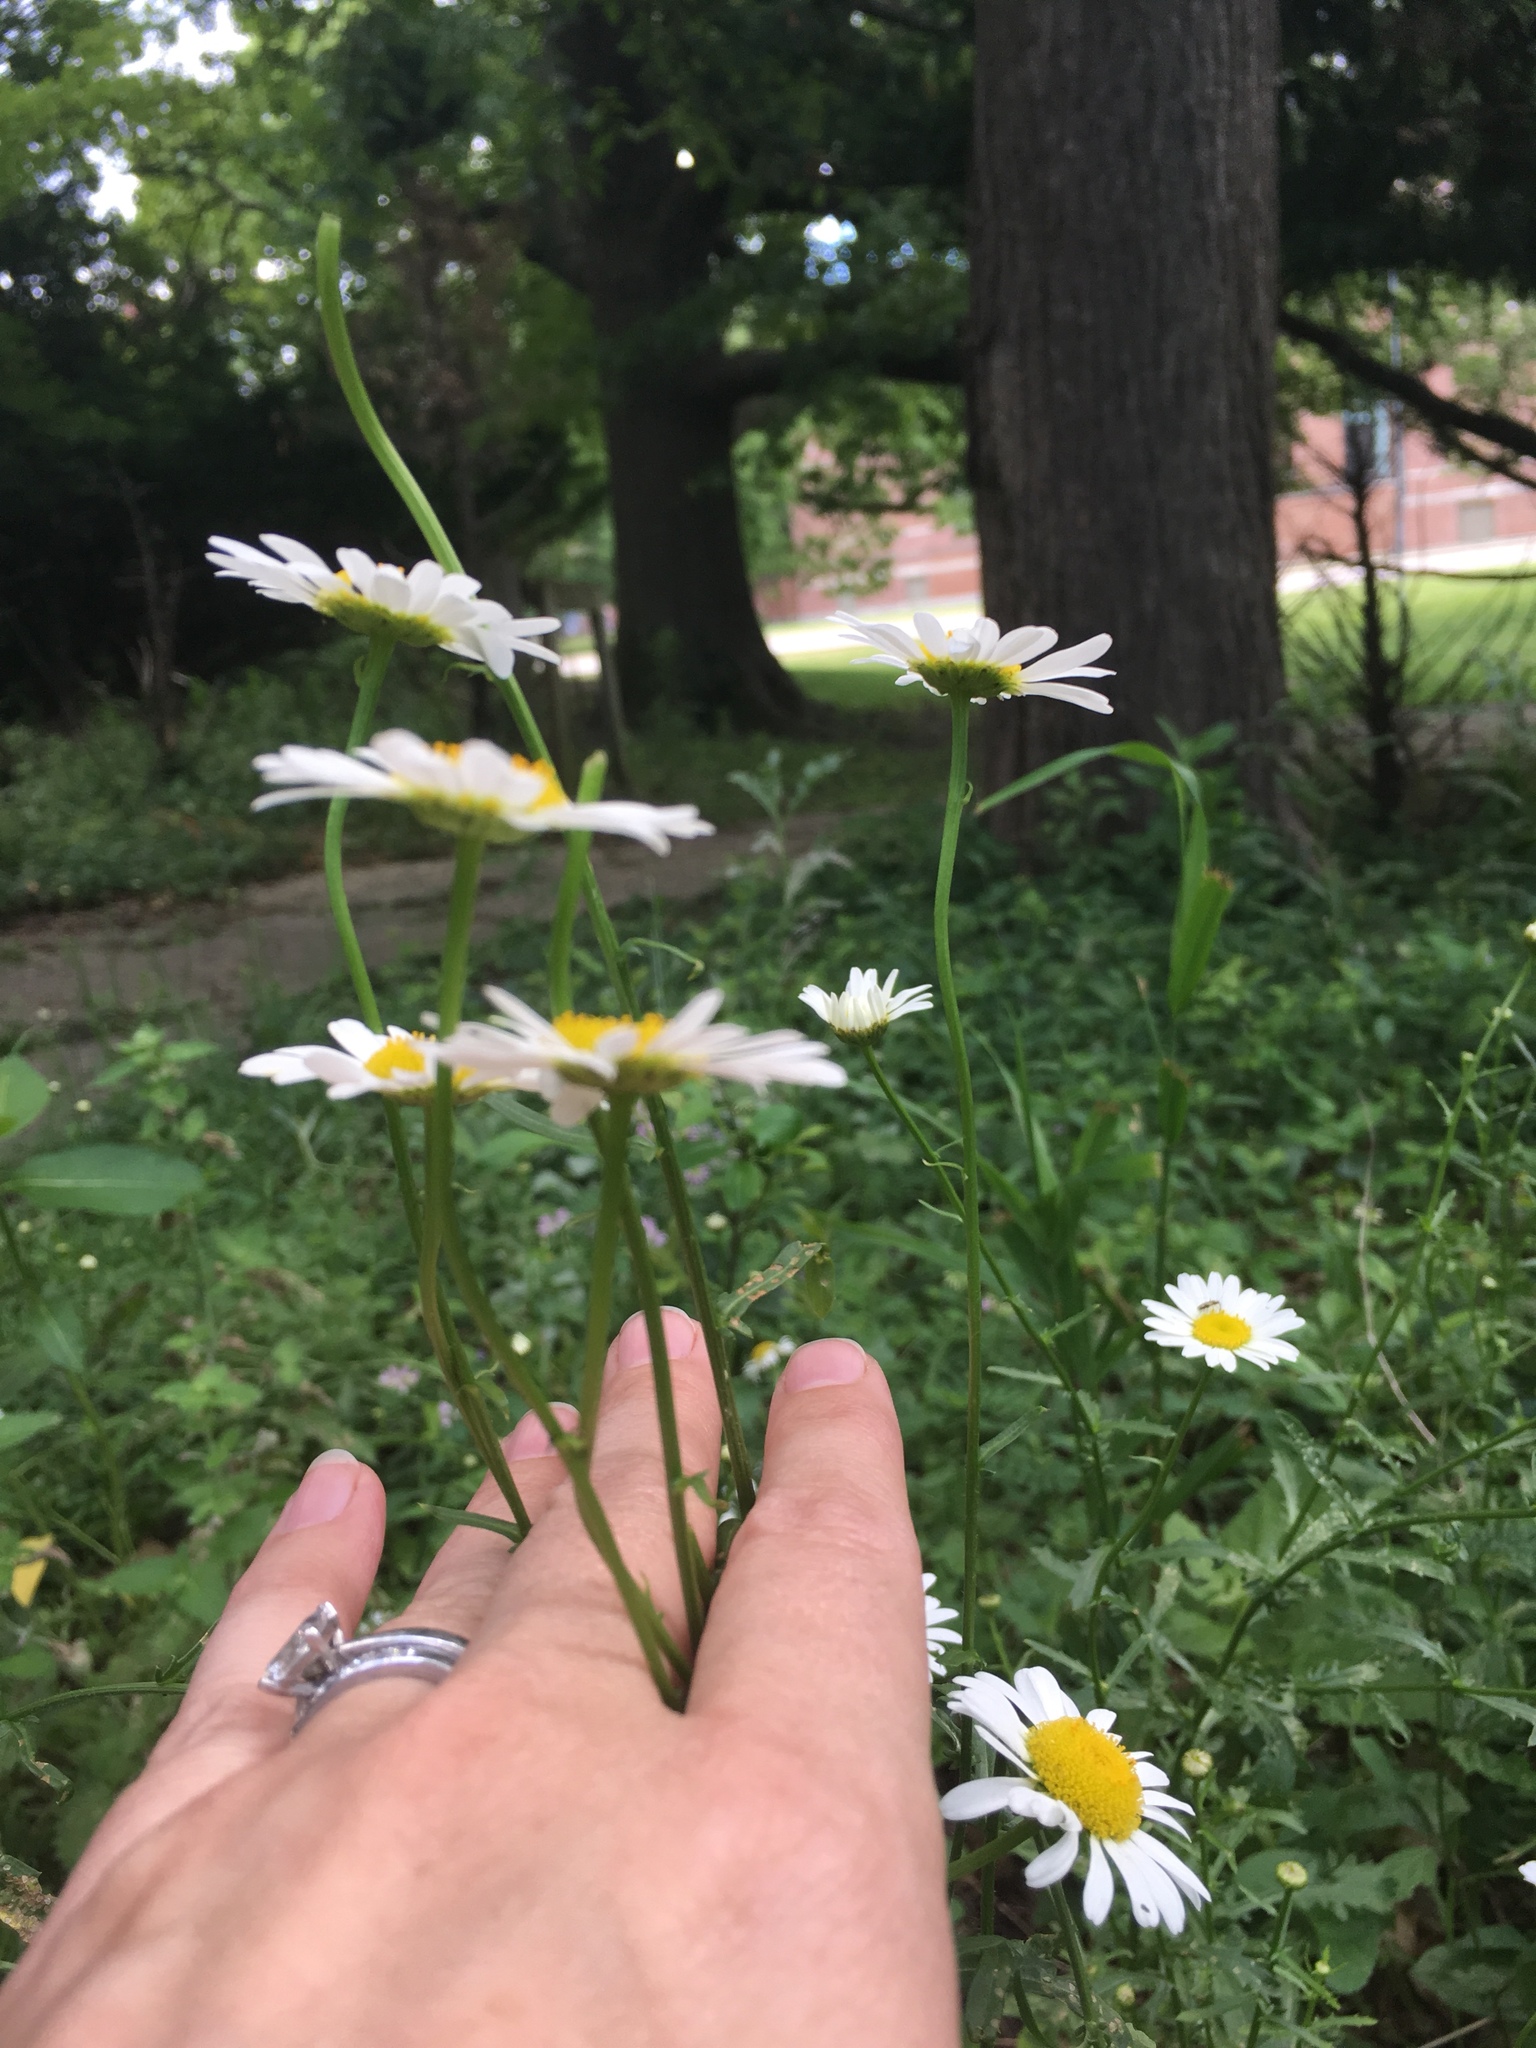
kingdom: Plantae
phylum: Tracheophyta
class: Magnoliopsida
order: Asterales
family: Asteraceae
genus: Leucanthemum
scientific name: Leucanthemum vulgare
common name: Oxeye daisy
